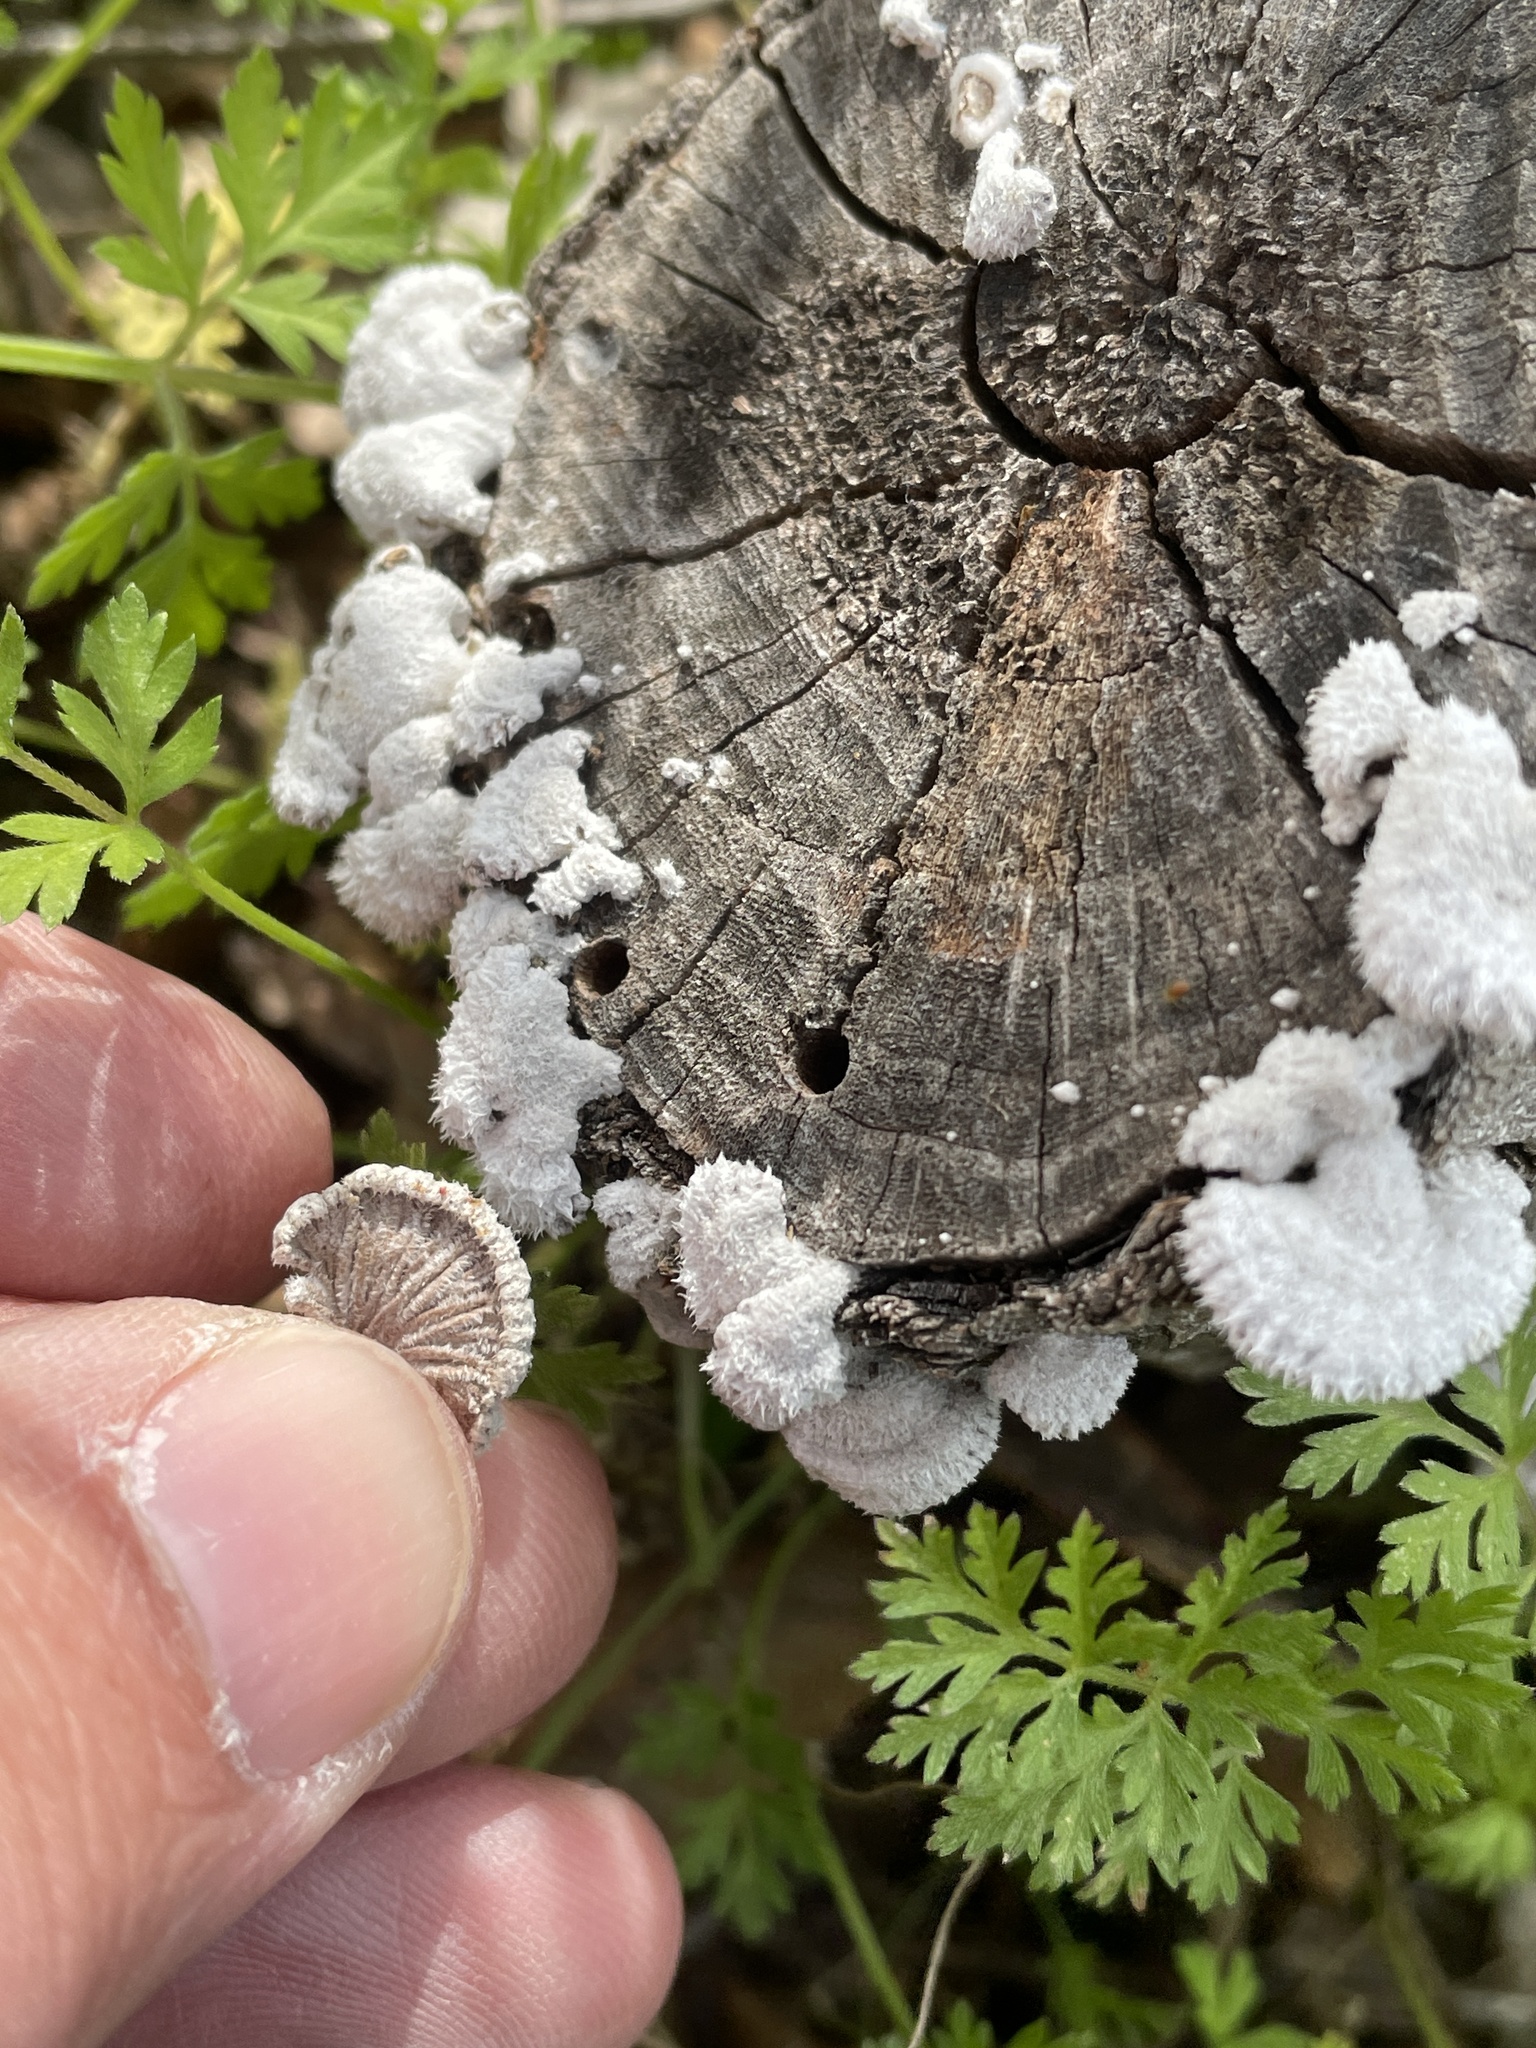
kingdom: Fungi
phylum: Basidiomycota
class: Agaricomycetes
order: Agaricales
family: Schizophyllaceae
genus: Schizophyllum
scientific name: Schizophyllum commune
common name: Common porecrust
